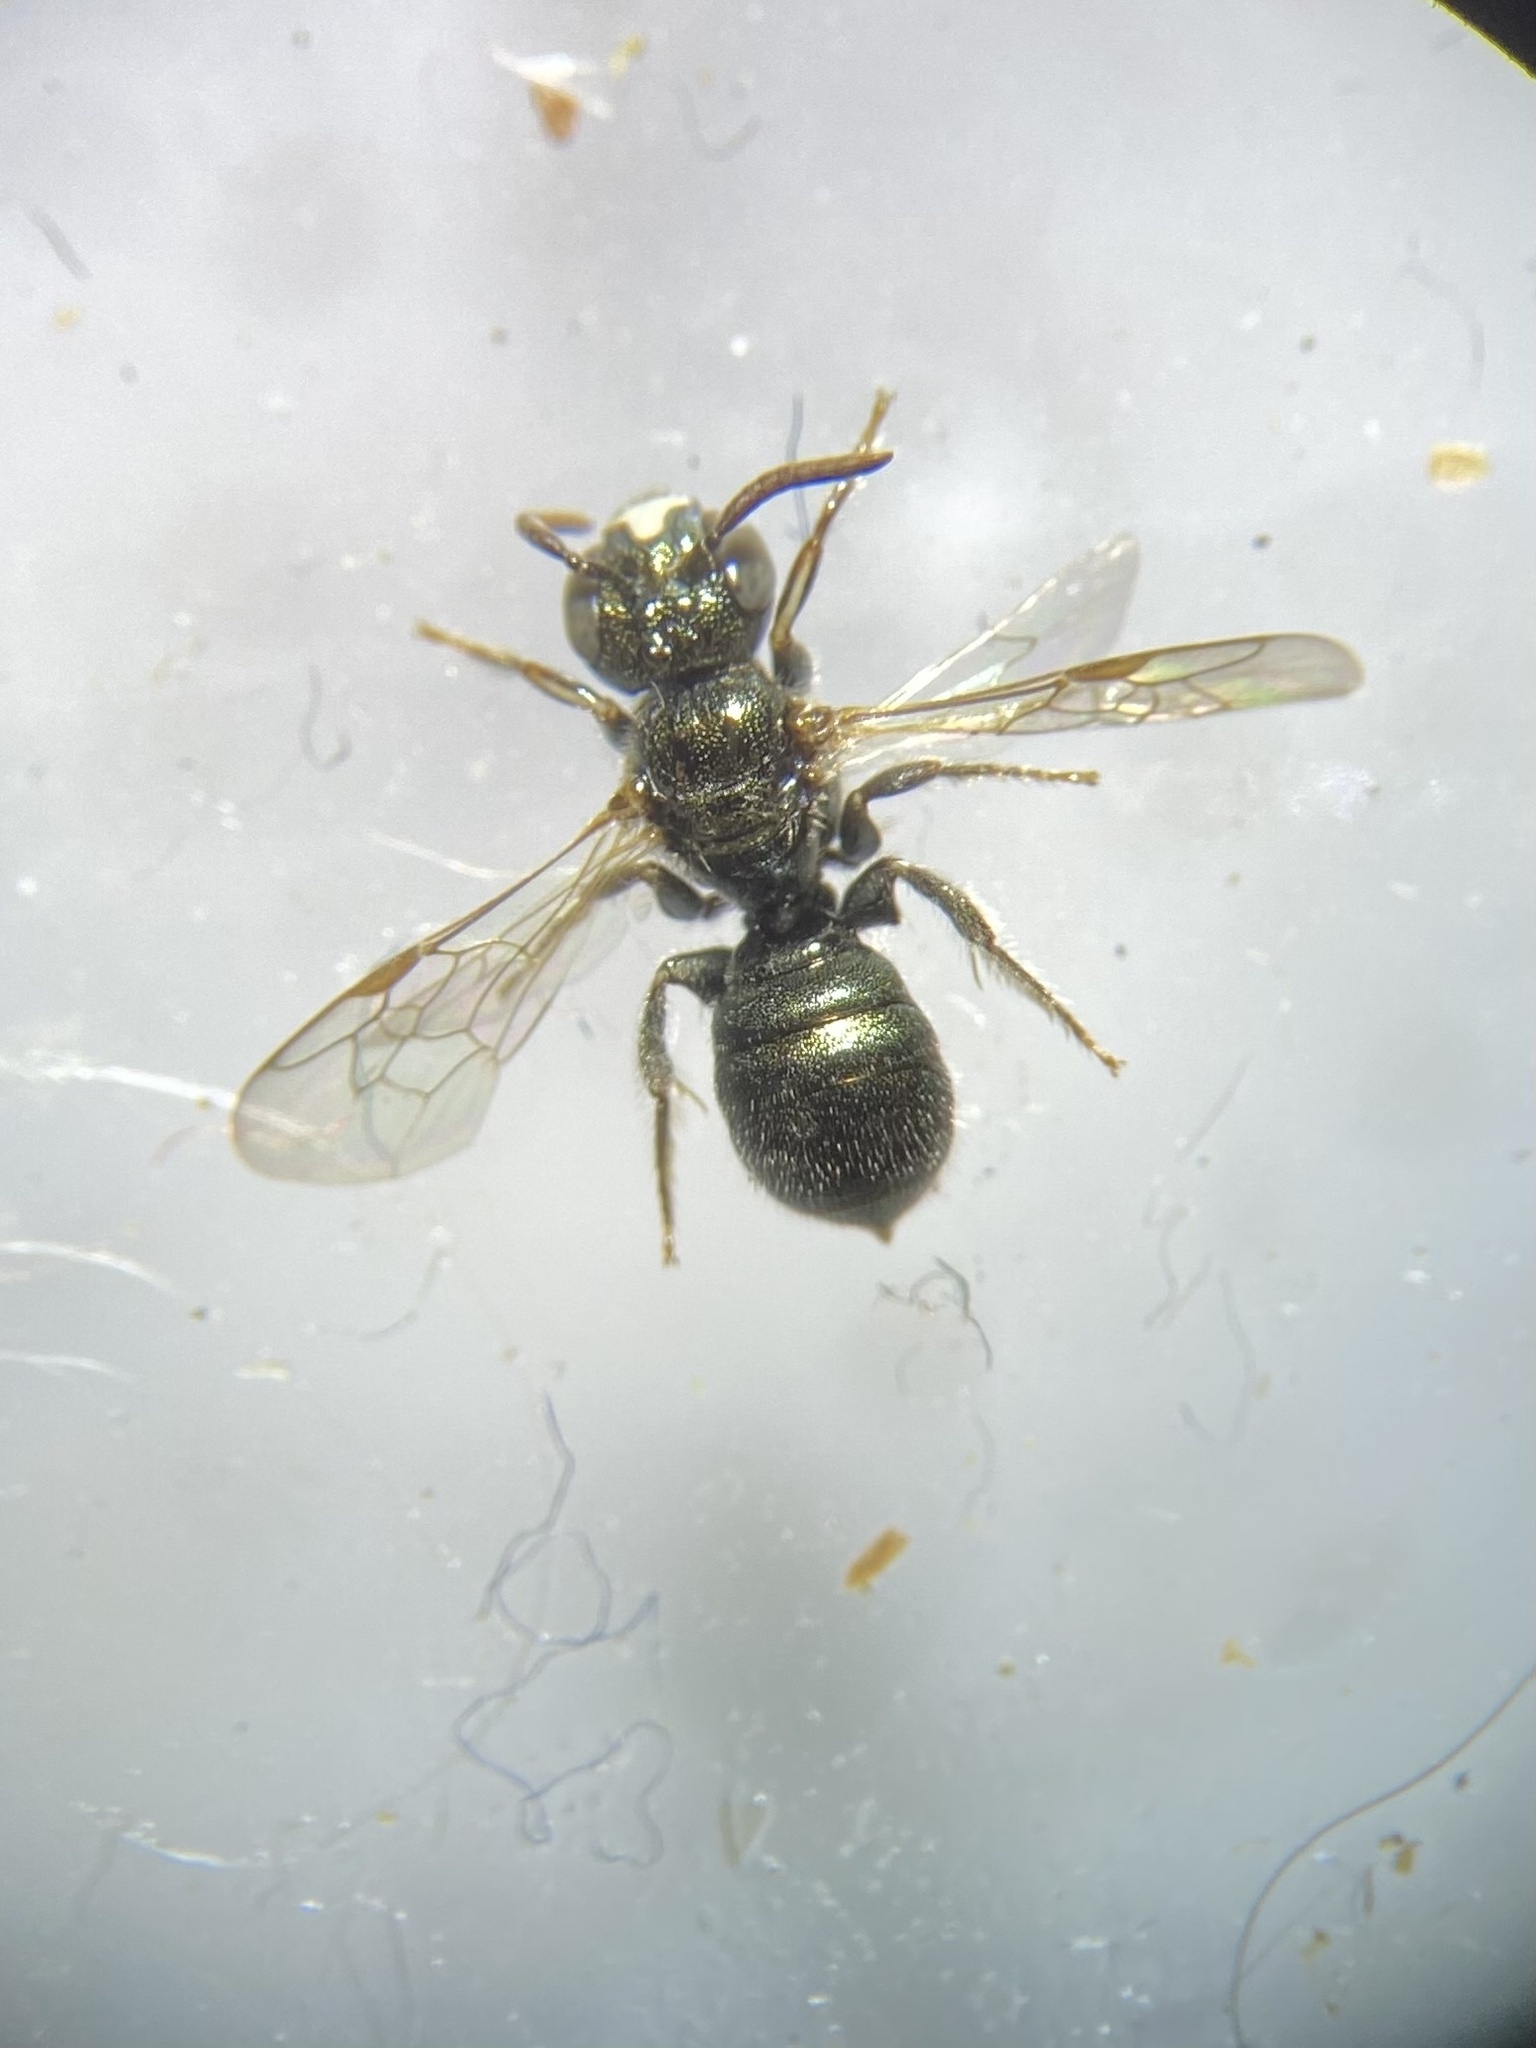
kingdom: Animalia
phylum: Arthropoda
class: Insecta
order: Hymenoptera
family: Apidae
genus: Ceratina
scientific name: Ceratina strenua
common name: Nimble carpenter bee
